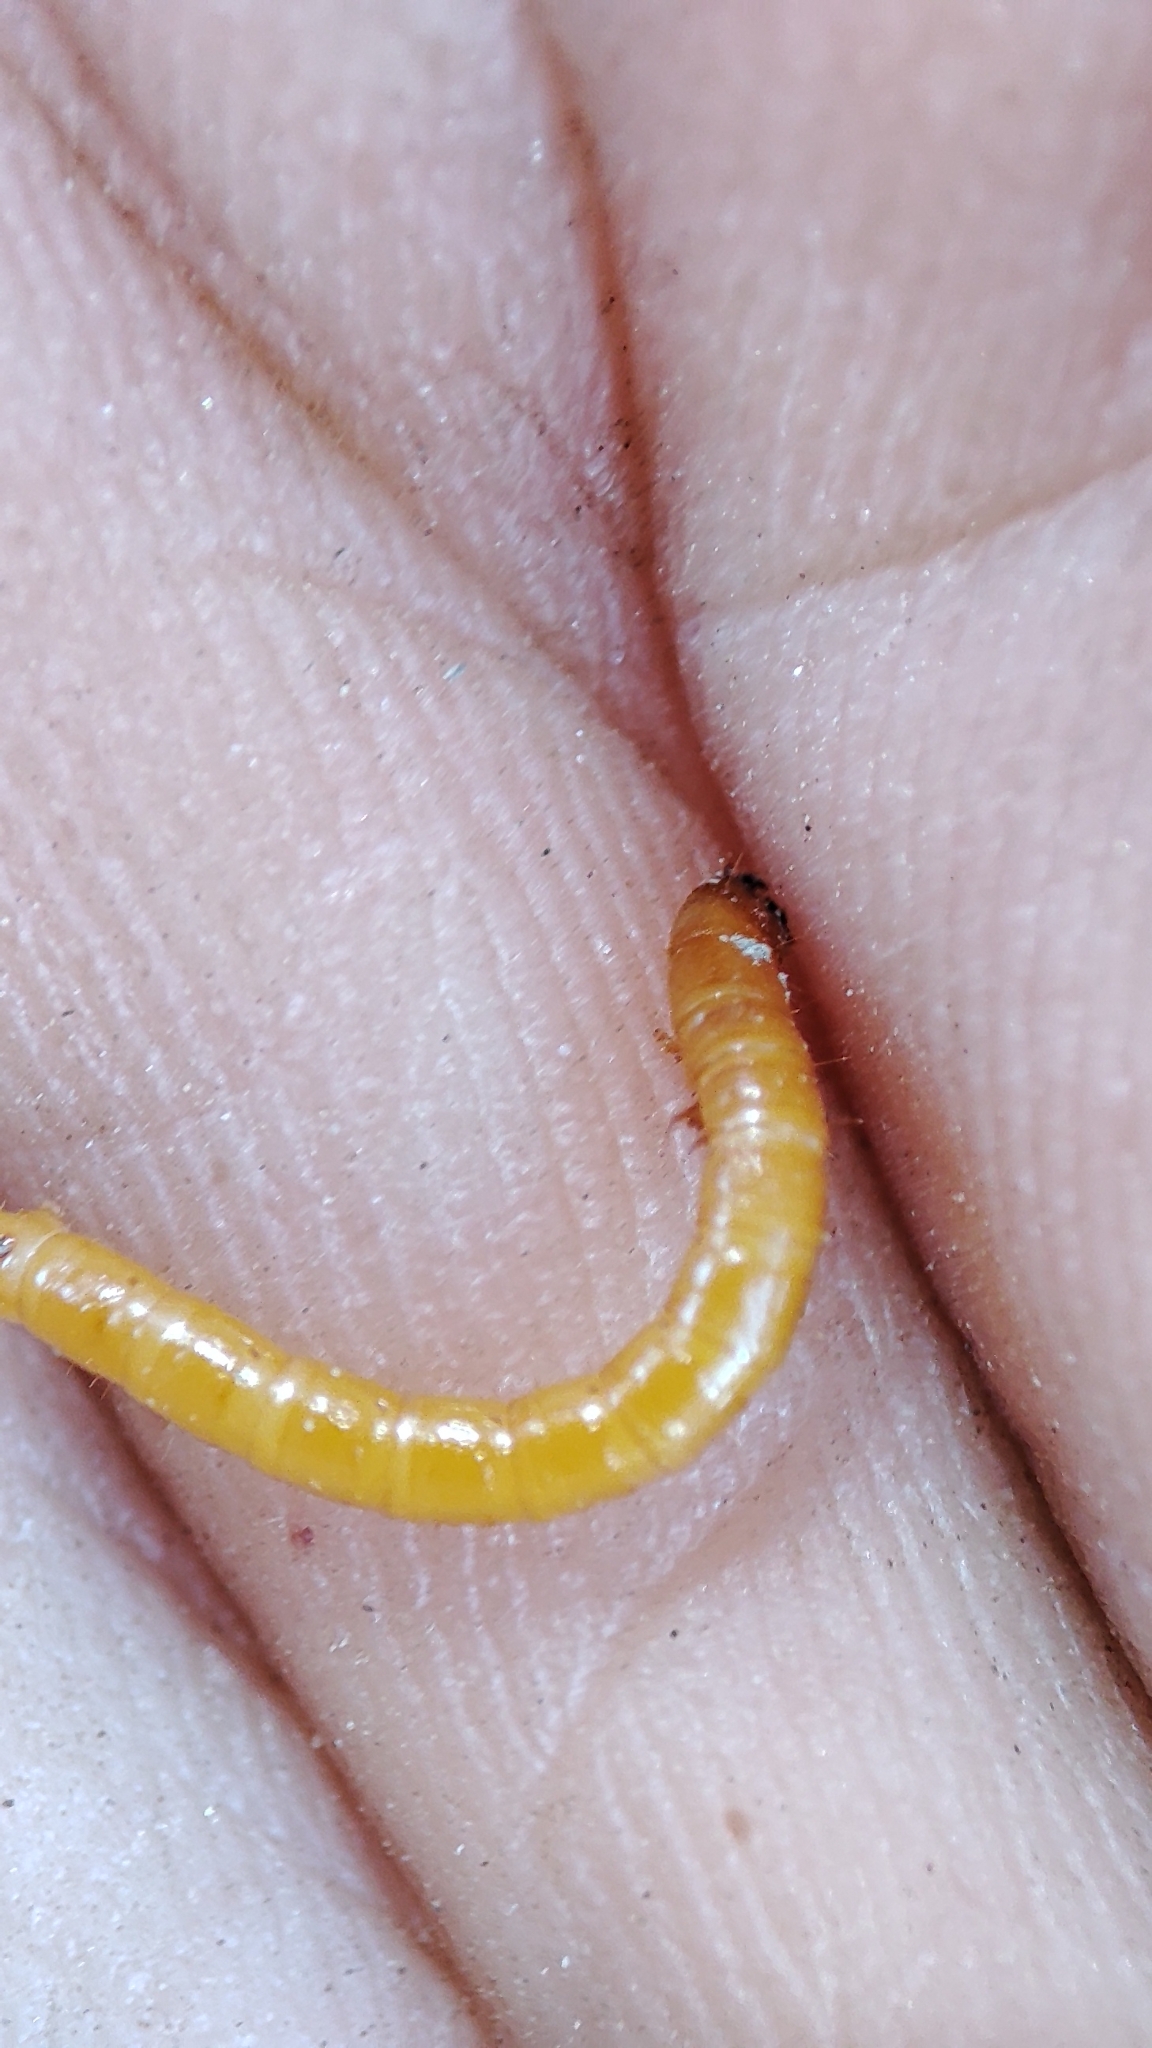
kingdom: Animalia
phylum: Arthropoda
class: Insecta
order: Coleoptera
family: Elateridae
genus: Agriotes
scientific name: Agriotes sputator
